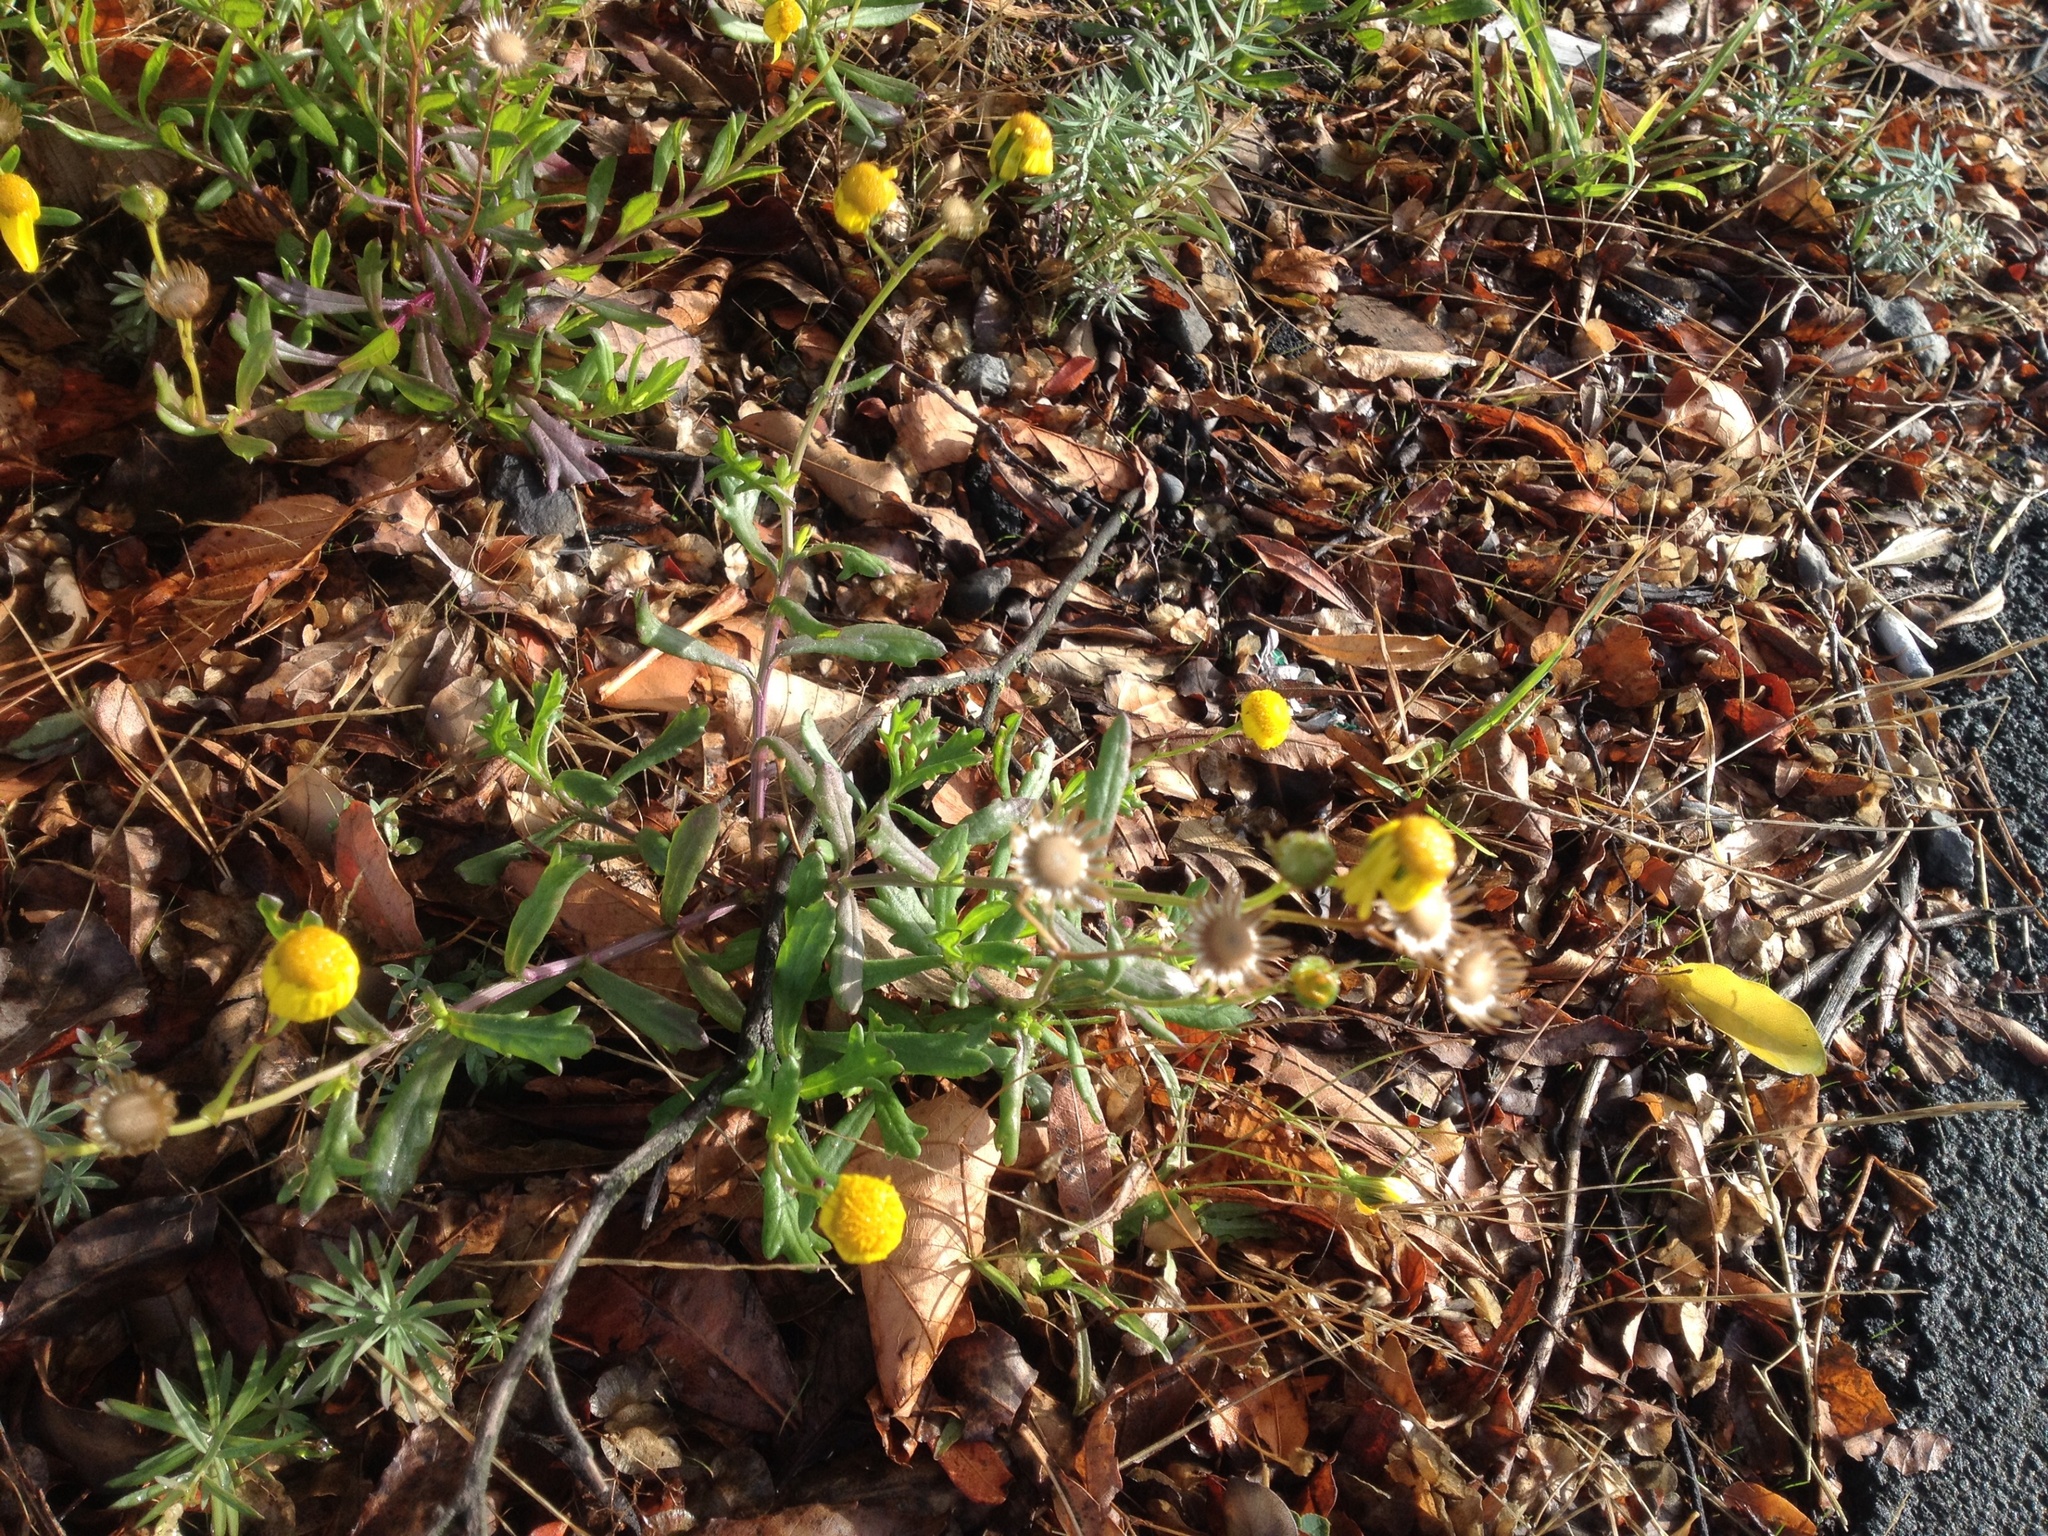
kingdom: Plantae
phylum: Tracheophyta
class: Magnoliopsida
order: Asterales
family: Asteraceae
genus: Senecio
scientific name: Senecio skirrhodon
